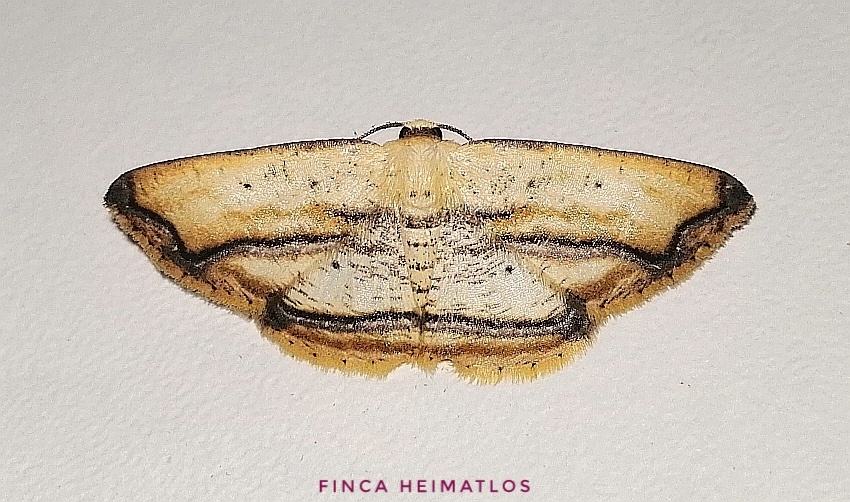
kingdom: Animalia
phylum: Arthropoda
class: Insecta
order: Lepidoptera
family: Geometridae
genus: Campatonema
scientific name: Campatonema marginata
